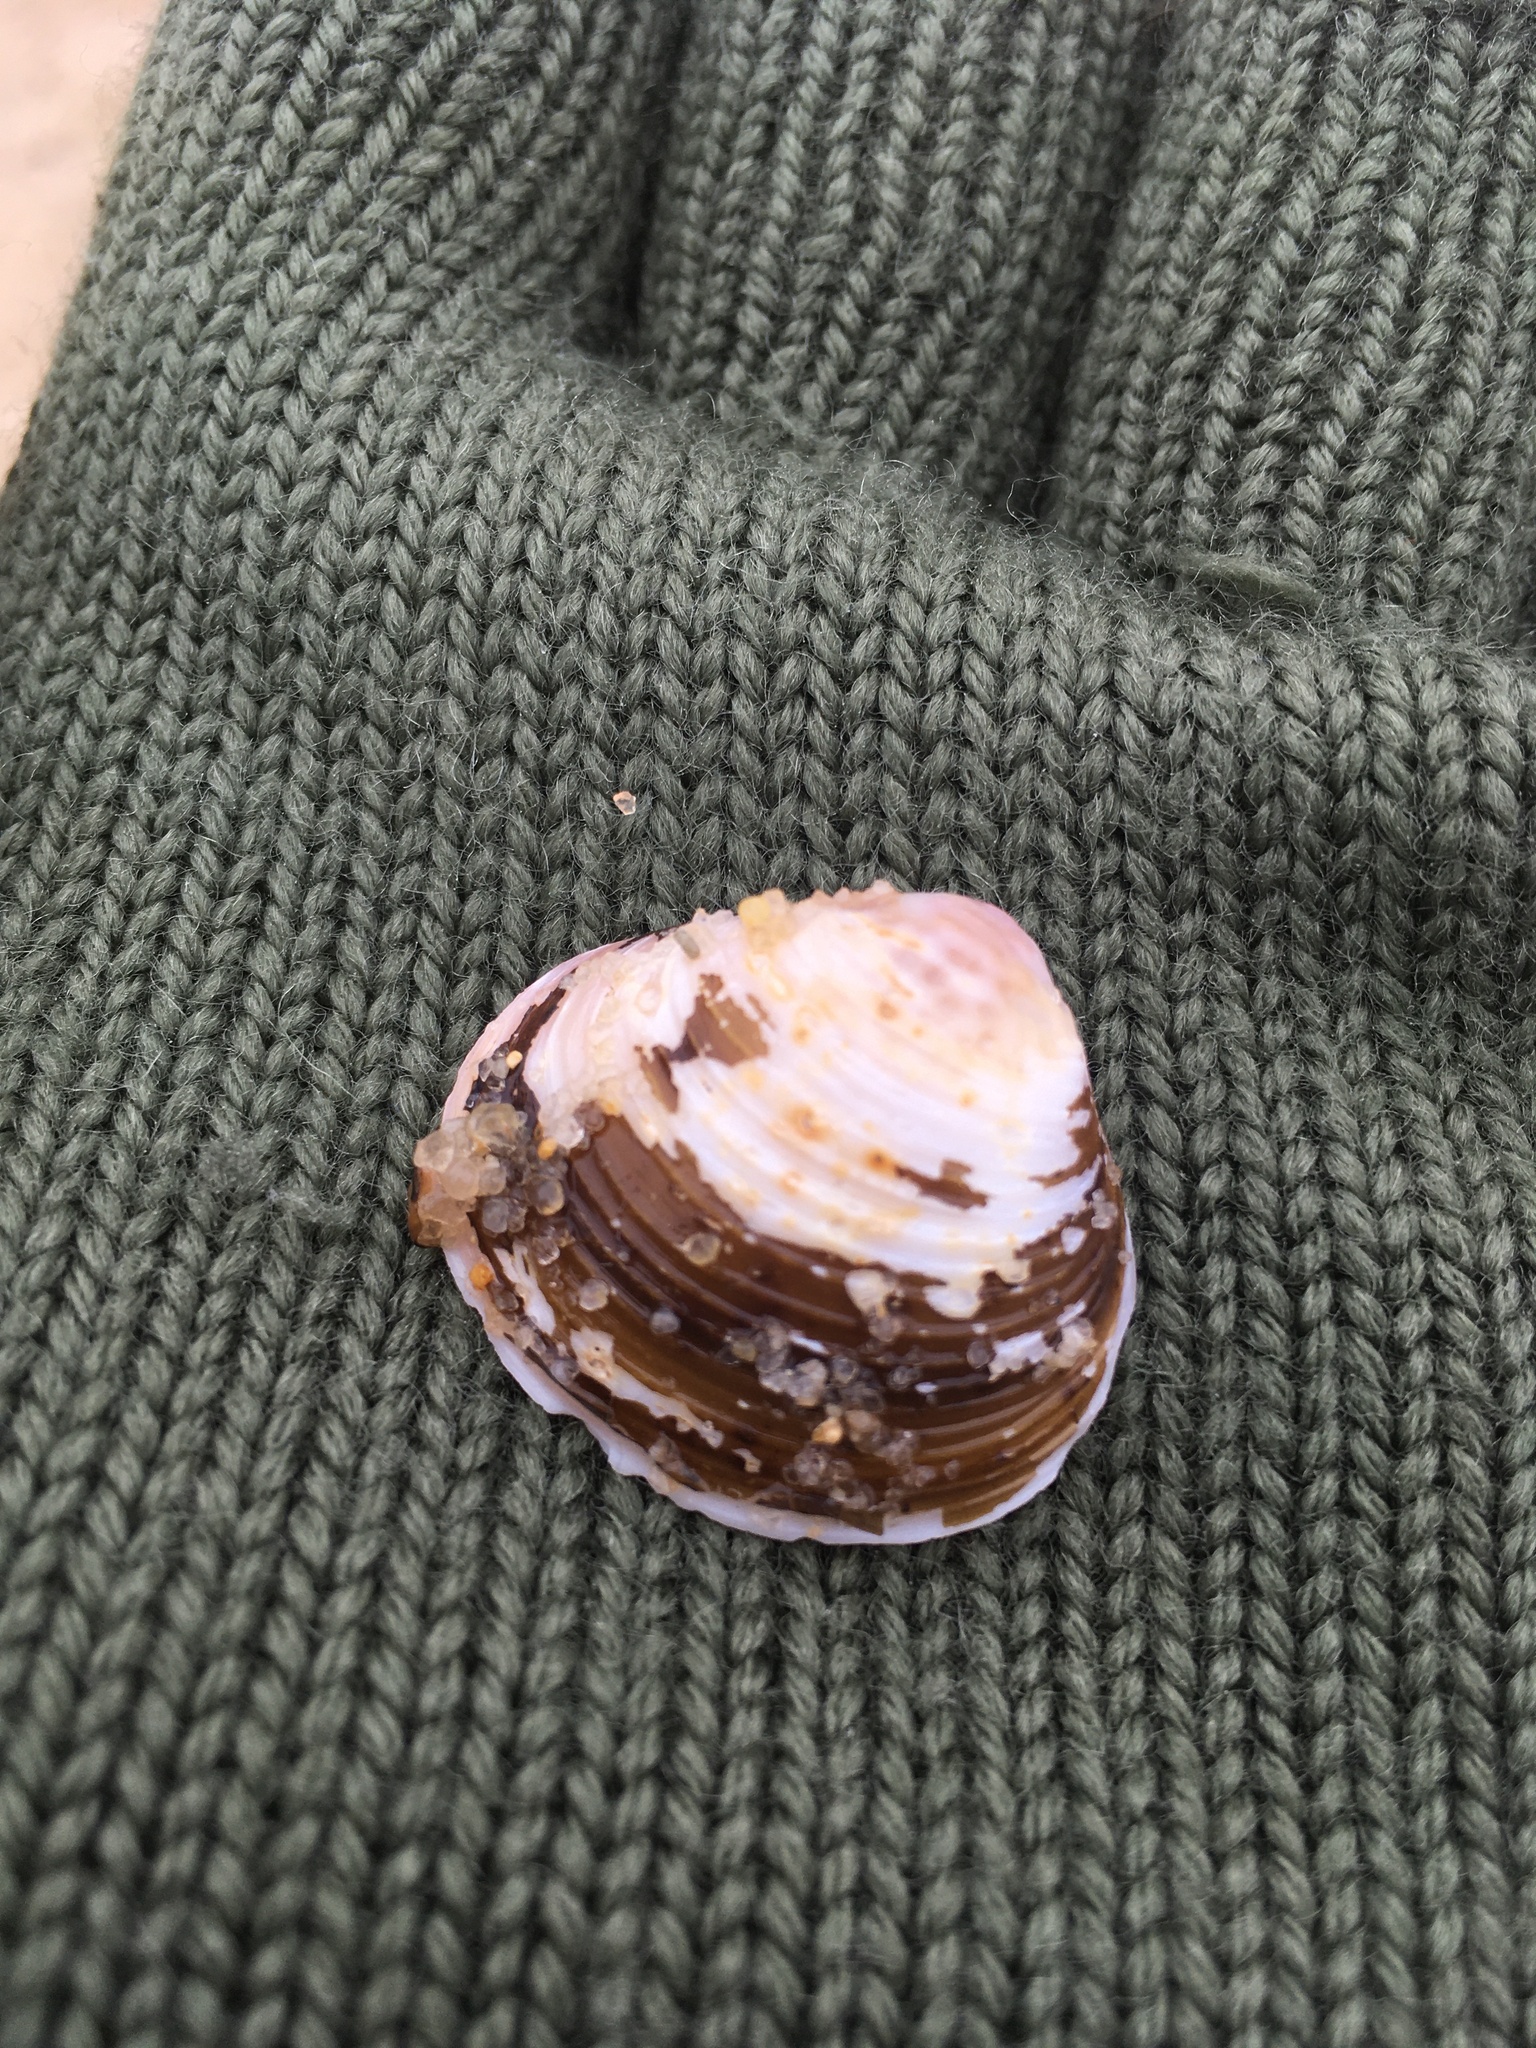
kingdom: Animalia
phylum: Mollusca
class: Bivalvia
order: Venerida
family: Cyrenidae
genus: Corbicula
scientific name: Corbicula fluminea
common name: Asian clam
